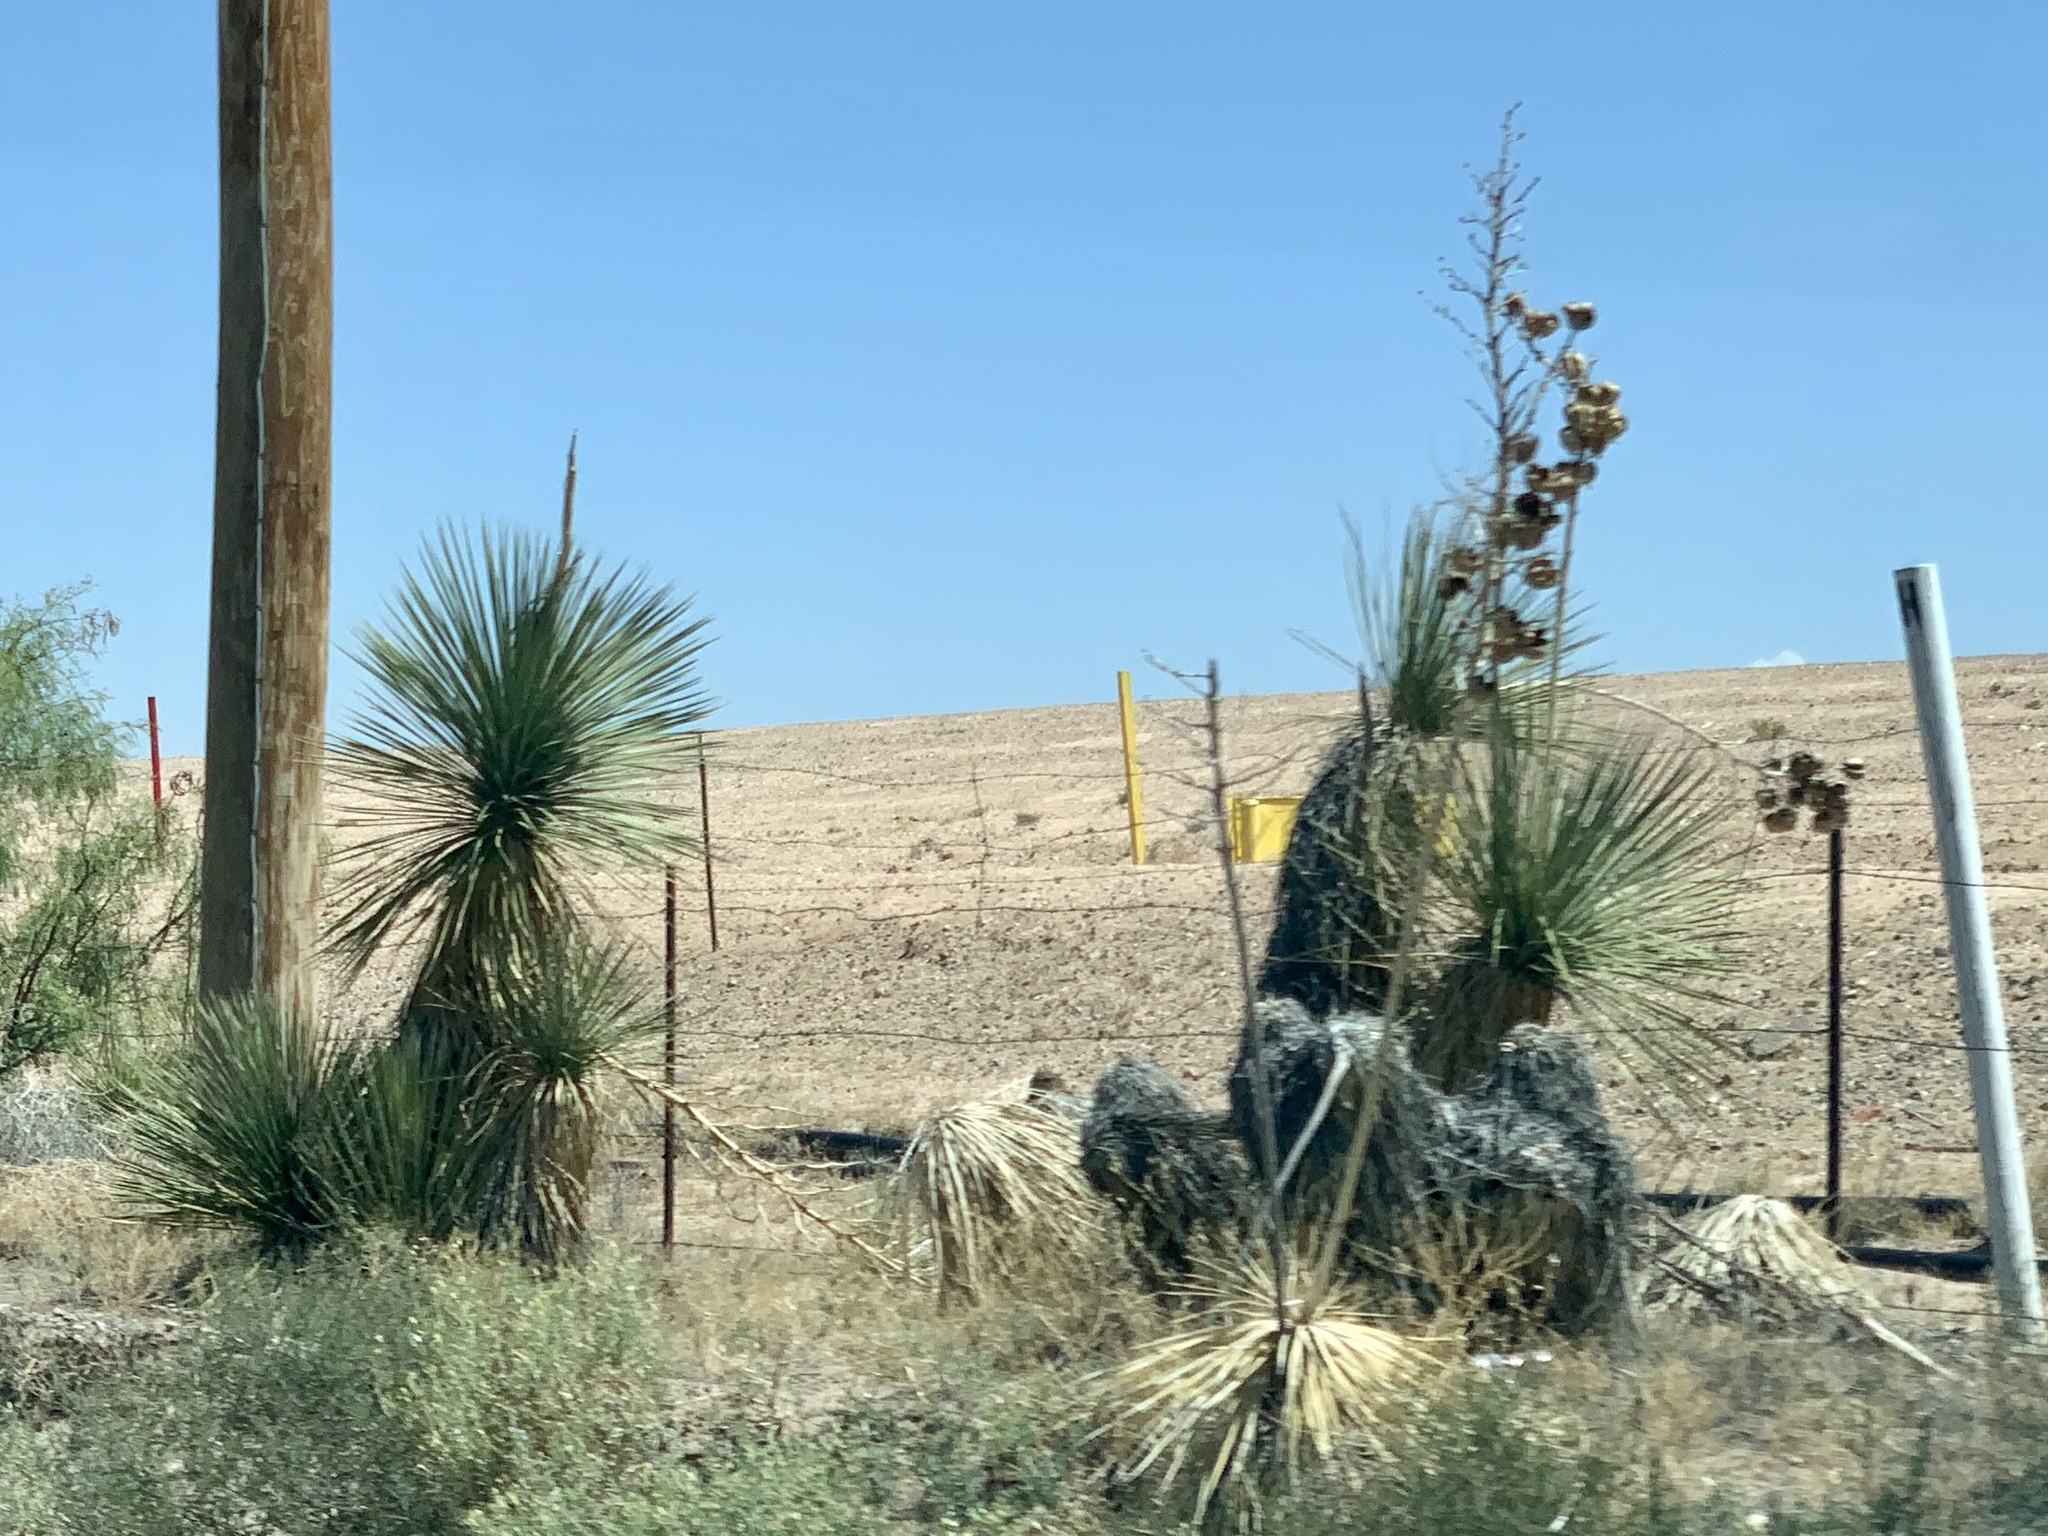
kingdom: Plantae
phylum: Tracheophyta
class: Liliopsida
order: Asparagales
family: Asparagaceae
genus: Yucca
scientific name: Yucca elata
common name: Palmella
